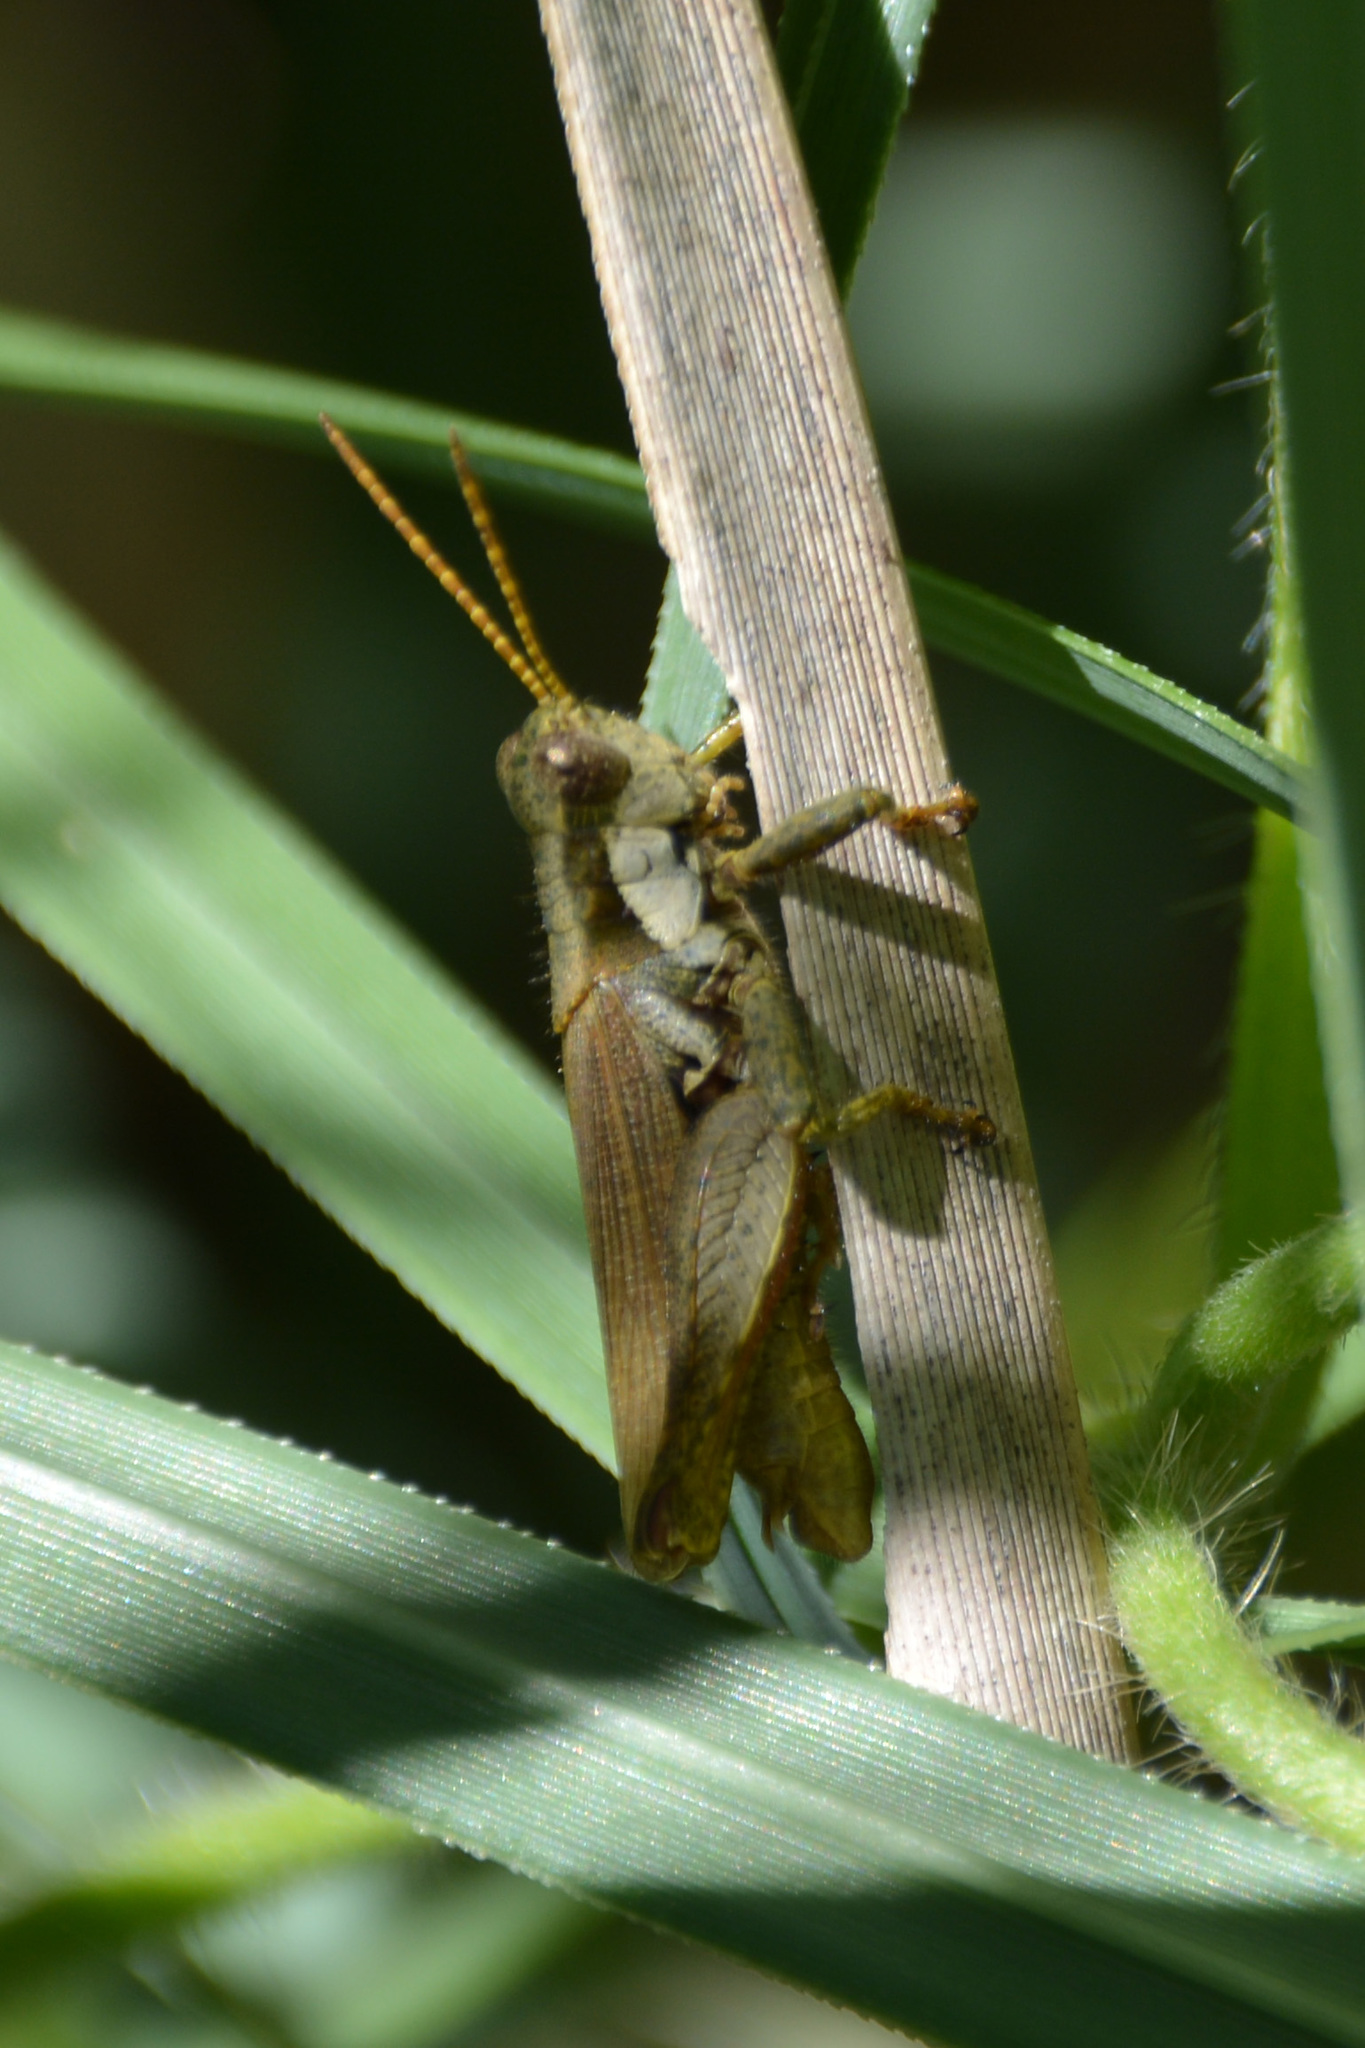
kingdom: Animalia
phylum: Arthropoda
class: Insecta
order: Orthoptera
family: Acrididae
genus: Ronderosia
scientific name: Ronderosia bergii
